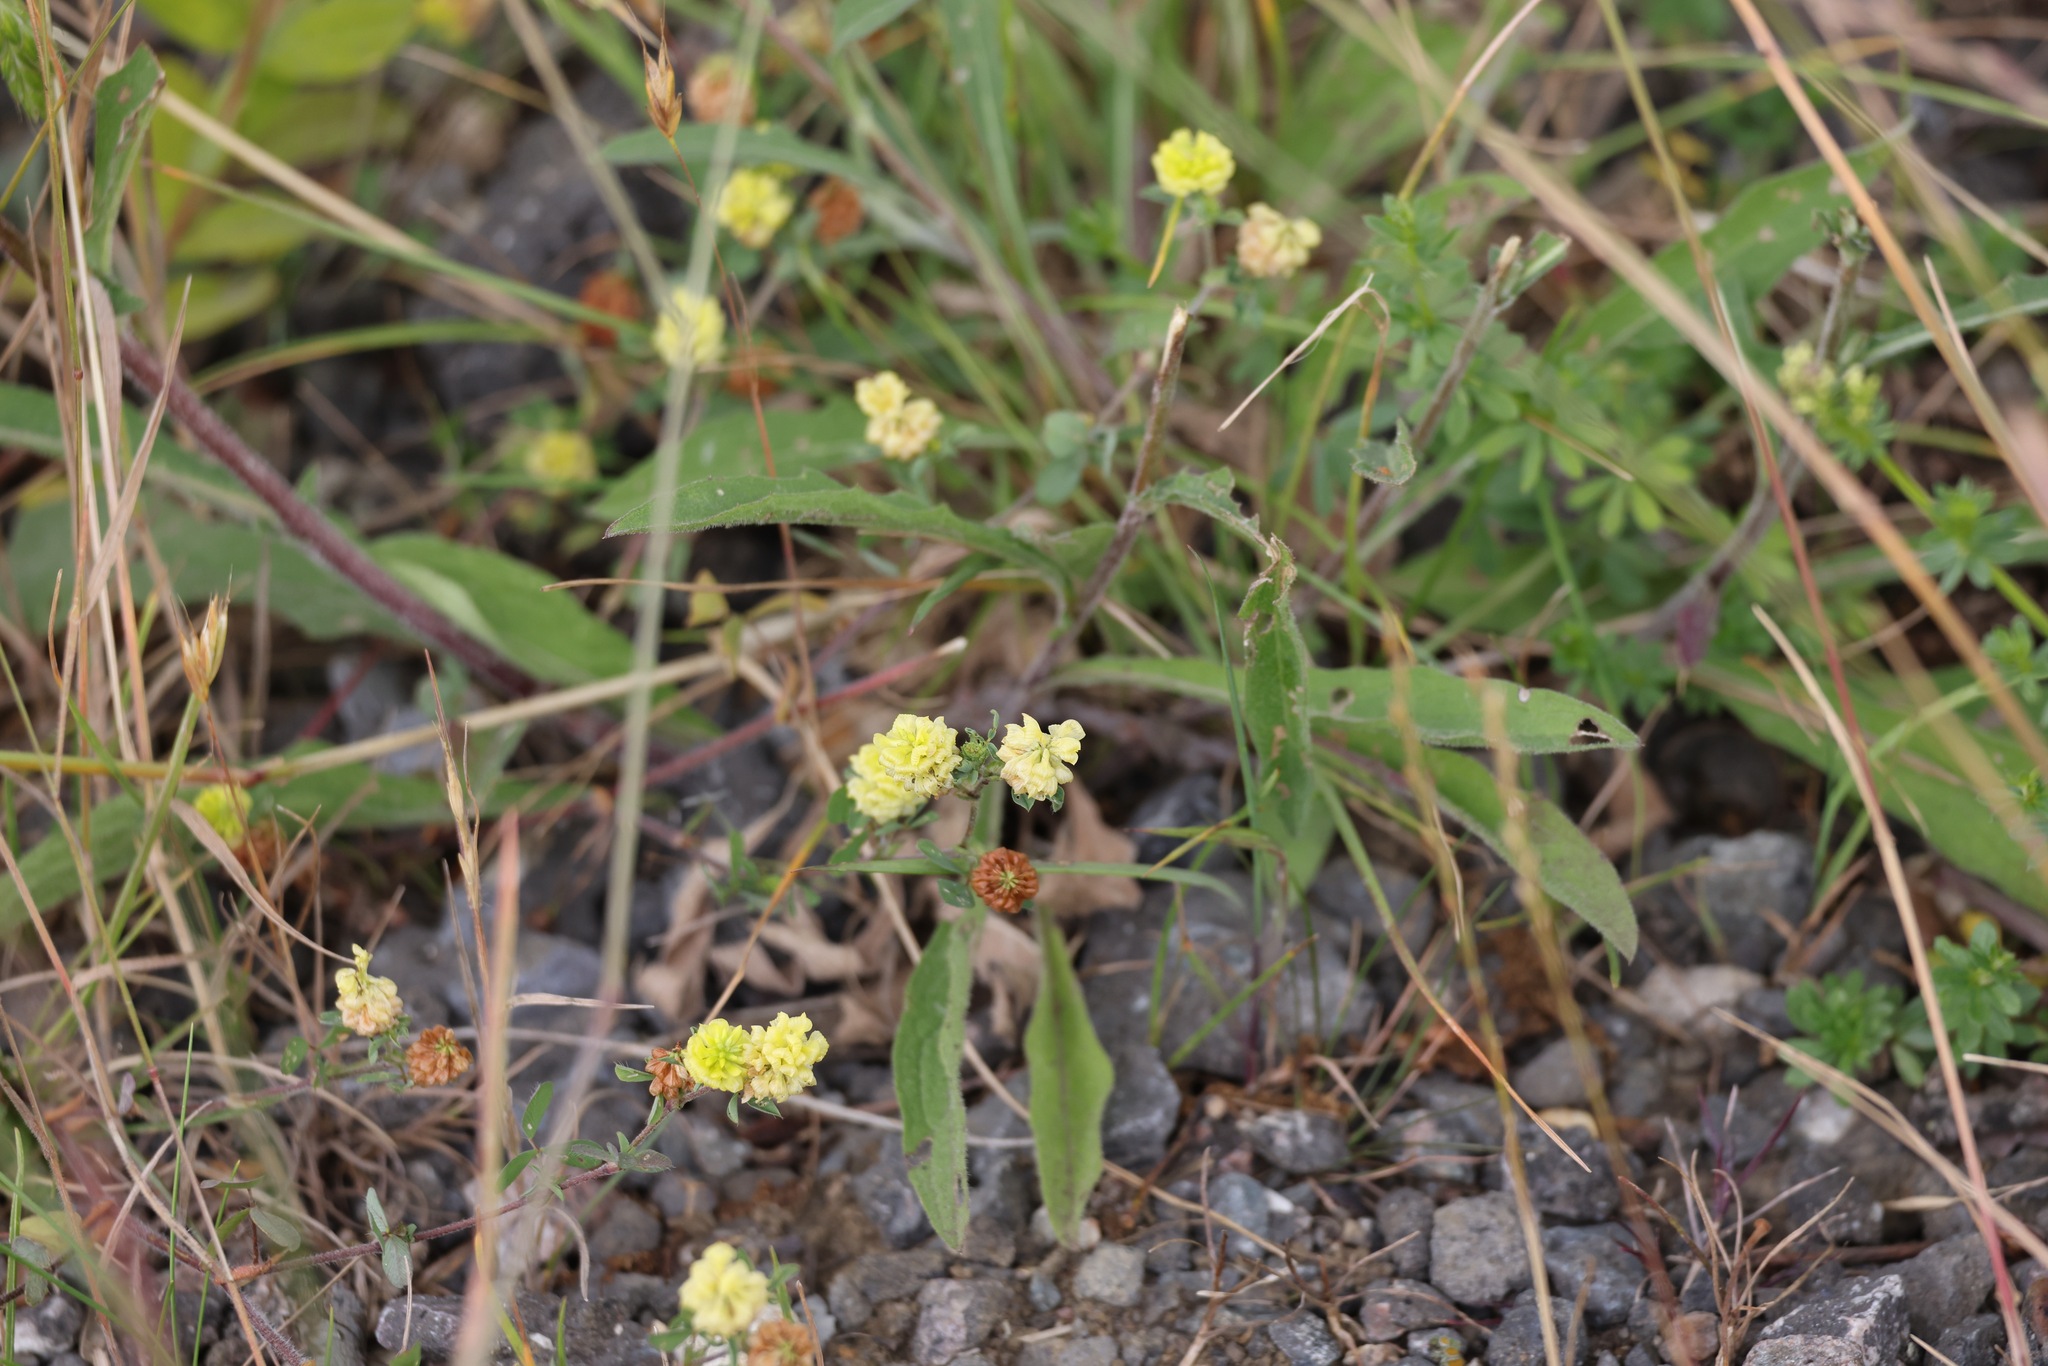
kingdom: Plantae
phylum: Tracheophyta
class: Magnoliopsida
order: Fabales
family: Fabaceae
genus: Trifolium
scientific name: Trifolium campestre
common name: Field clover
